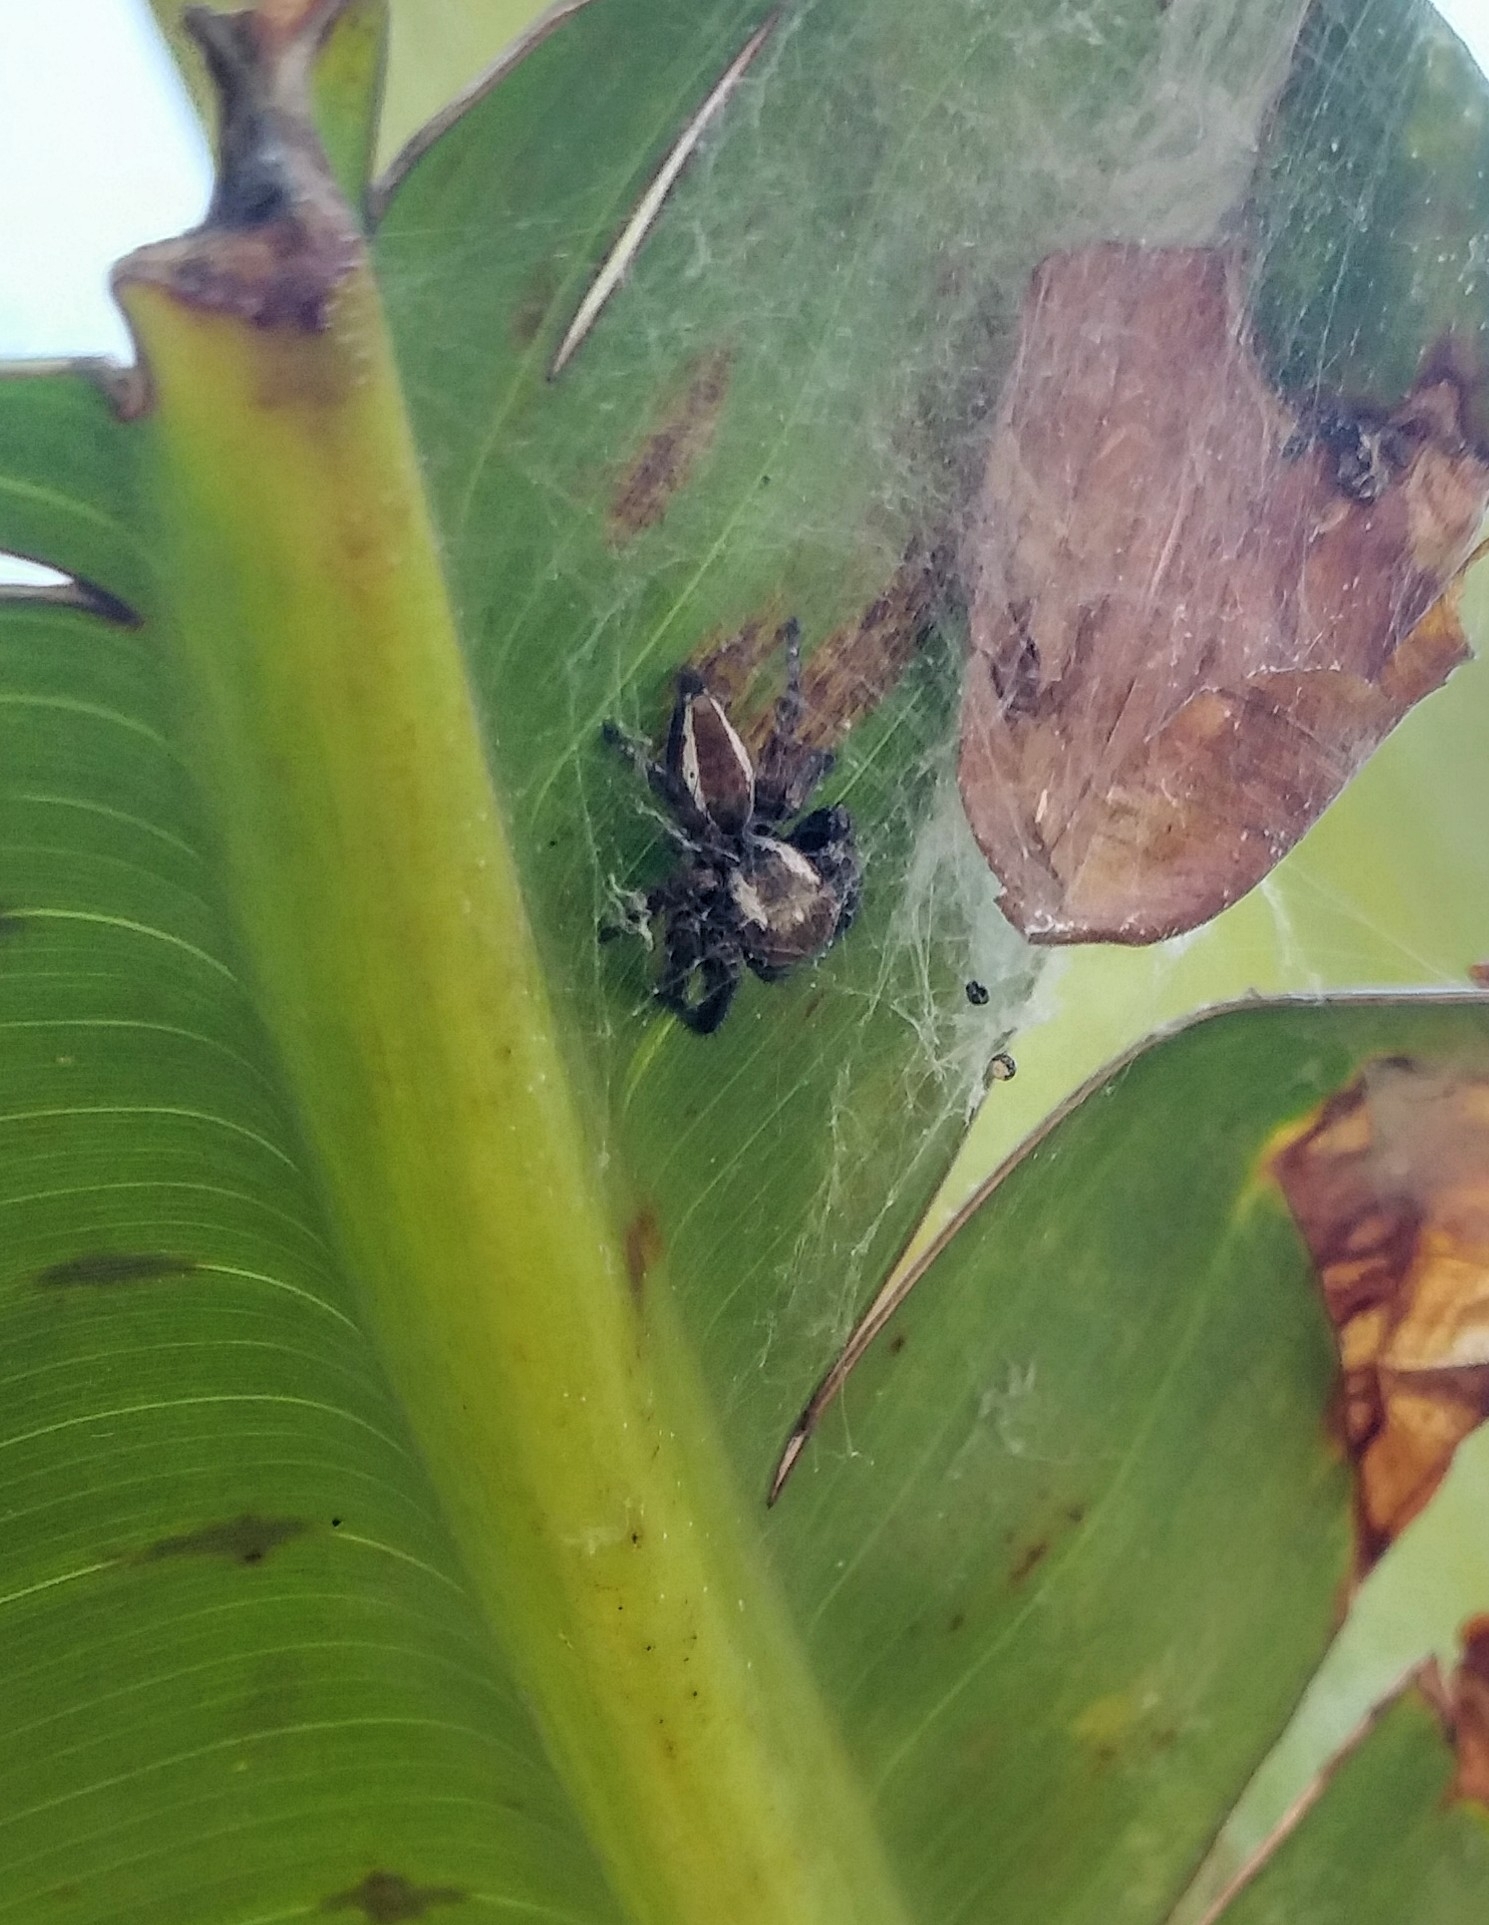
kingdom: Animalia
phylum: Arthropoda
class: Arachnida
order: Araneae
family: Salticidae
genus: Carrhotus
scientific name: Carrhotus viduus
